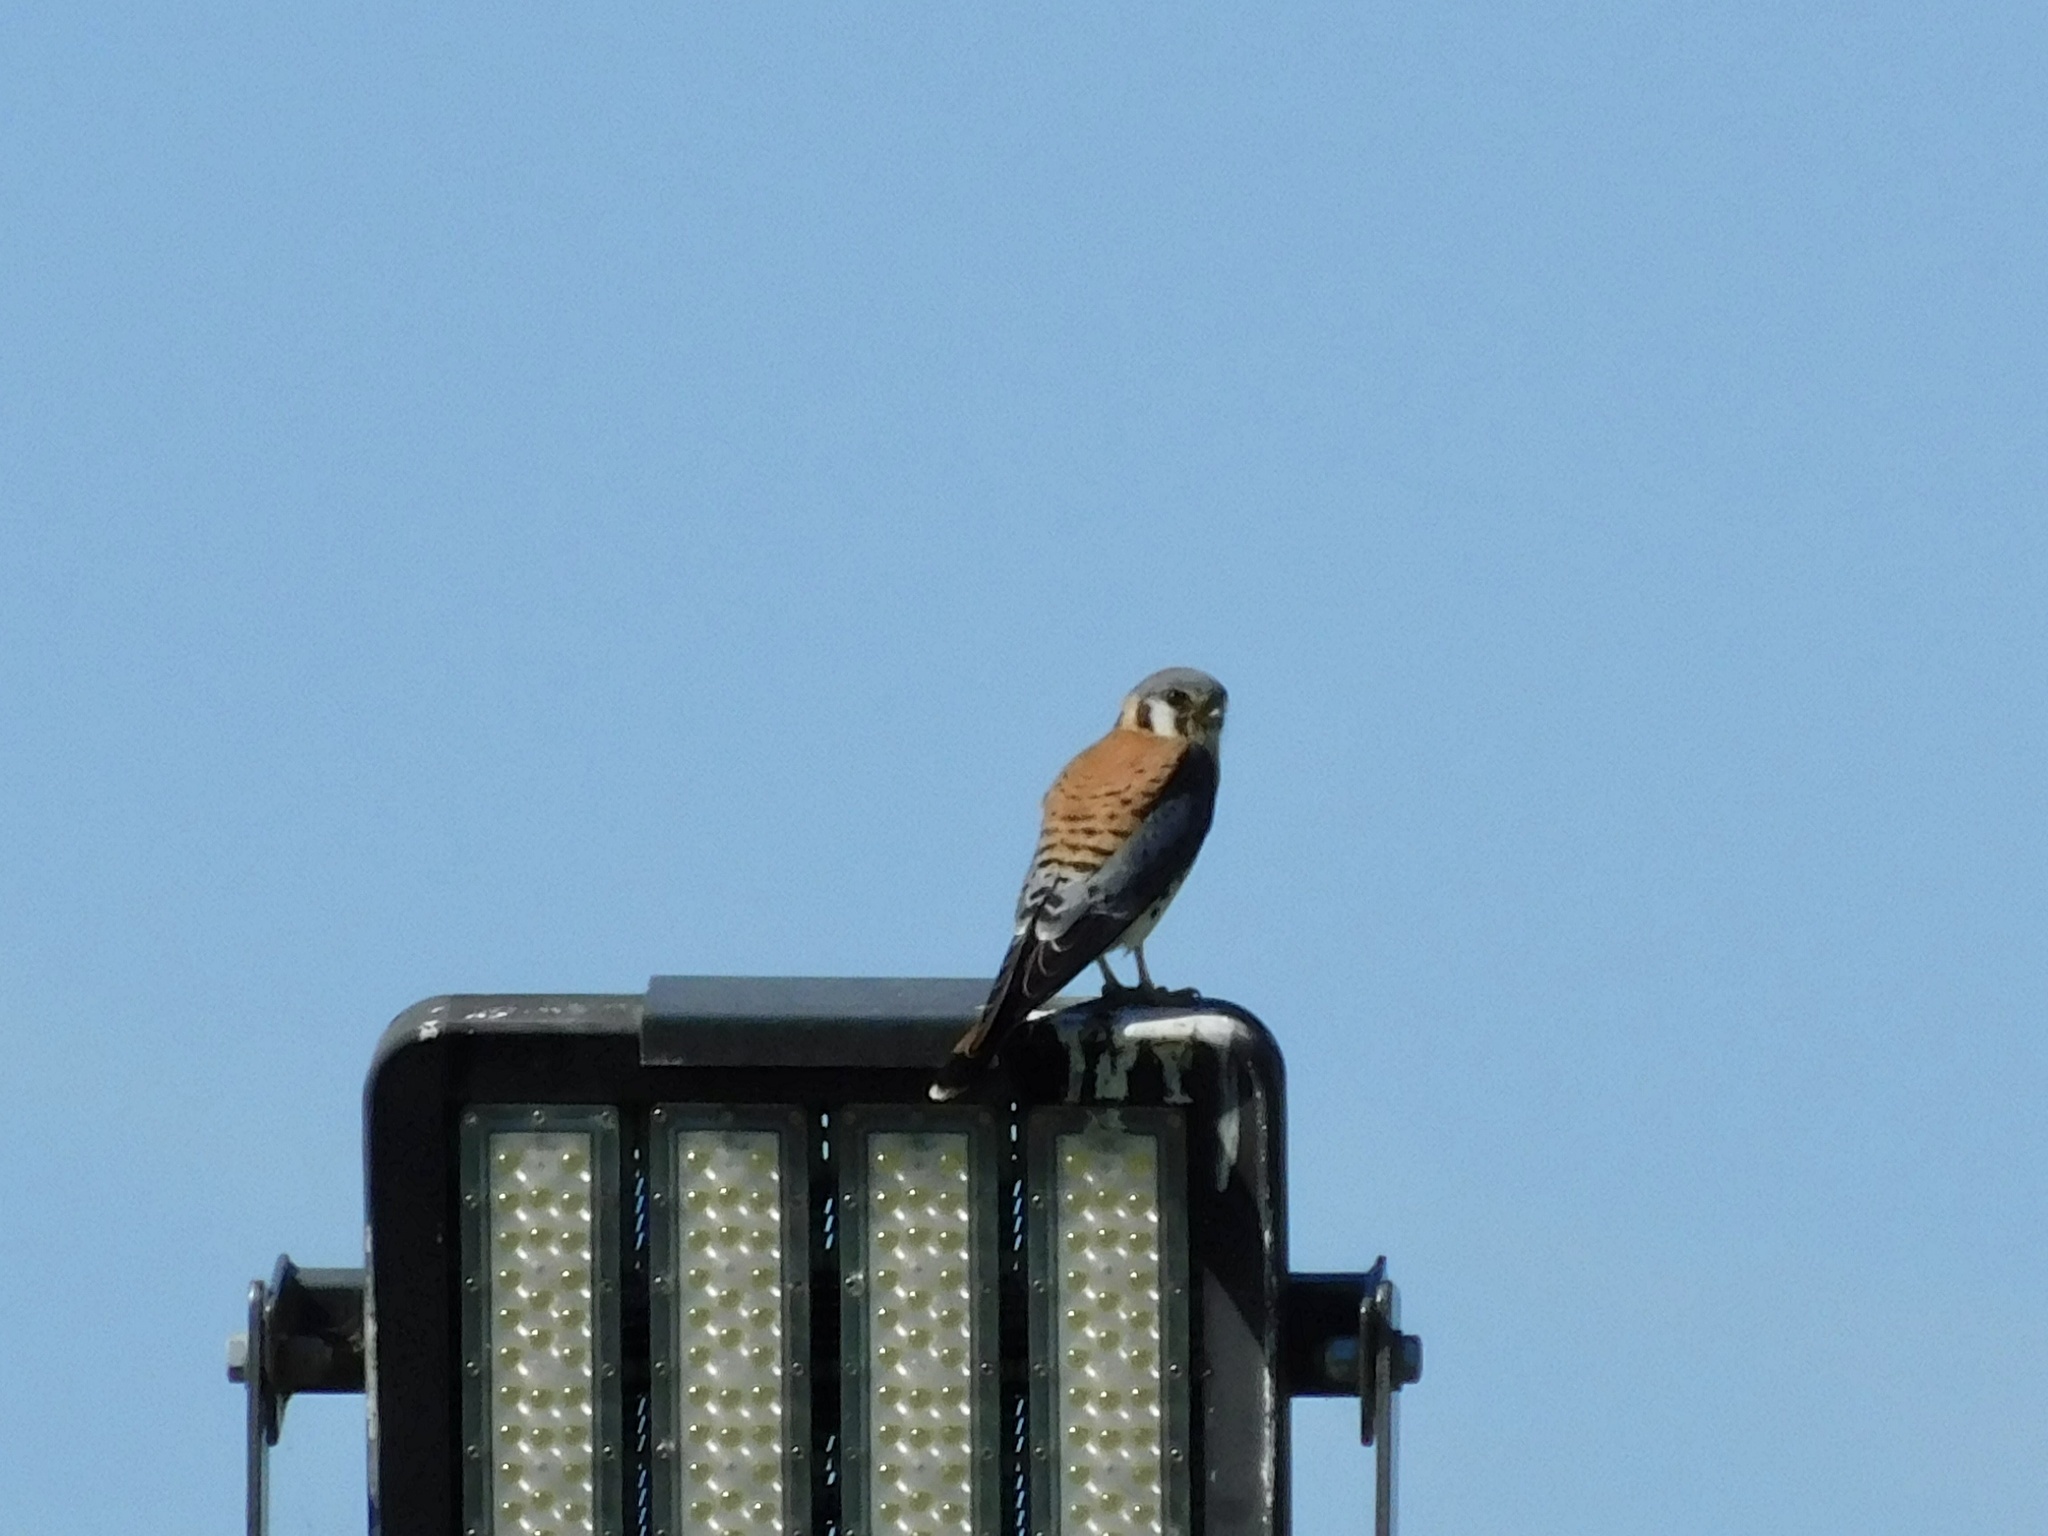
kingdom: Animalia
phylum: Chordata
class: Aves
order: Falconiformes
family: Falconidae
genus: Falco
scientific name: Falco sparverius
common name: American kestrel
